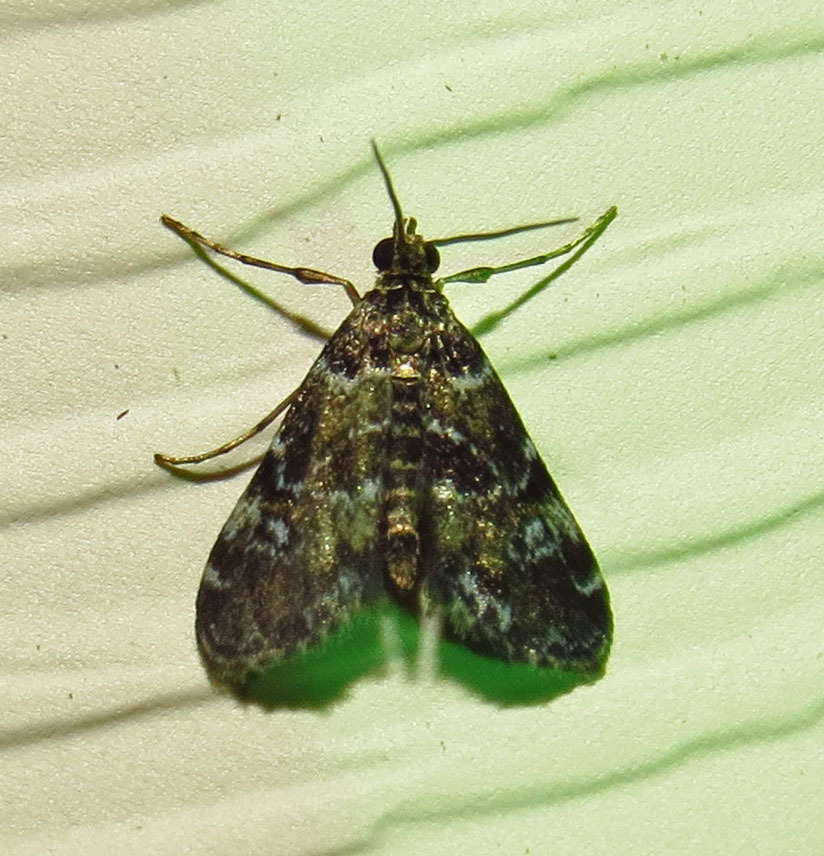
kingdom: Animalia
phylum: Arthropoda
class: Insecta
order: Lepidoptera
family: Crambidae
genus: Elophila
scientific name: Elophila obliteralis
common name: Waterlily leafcutter moth
